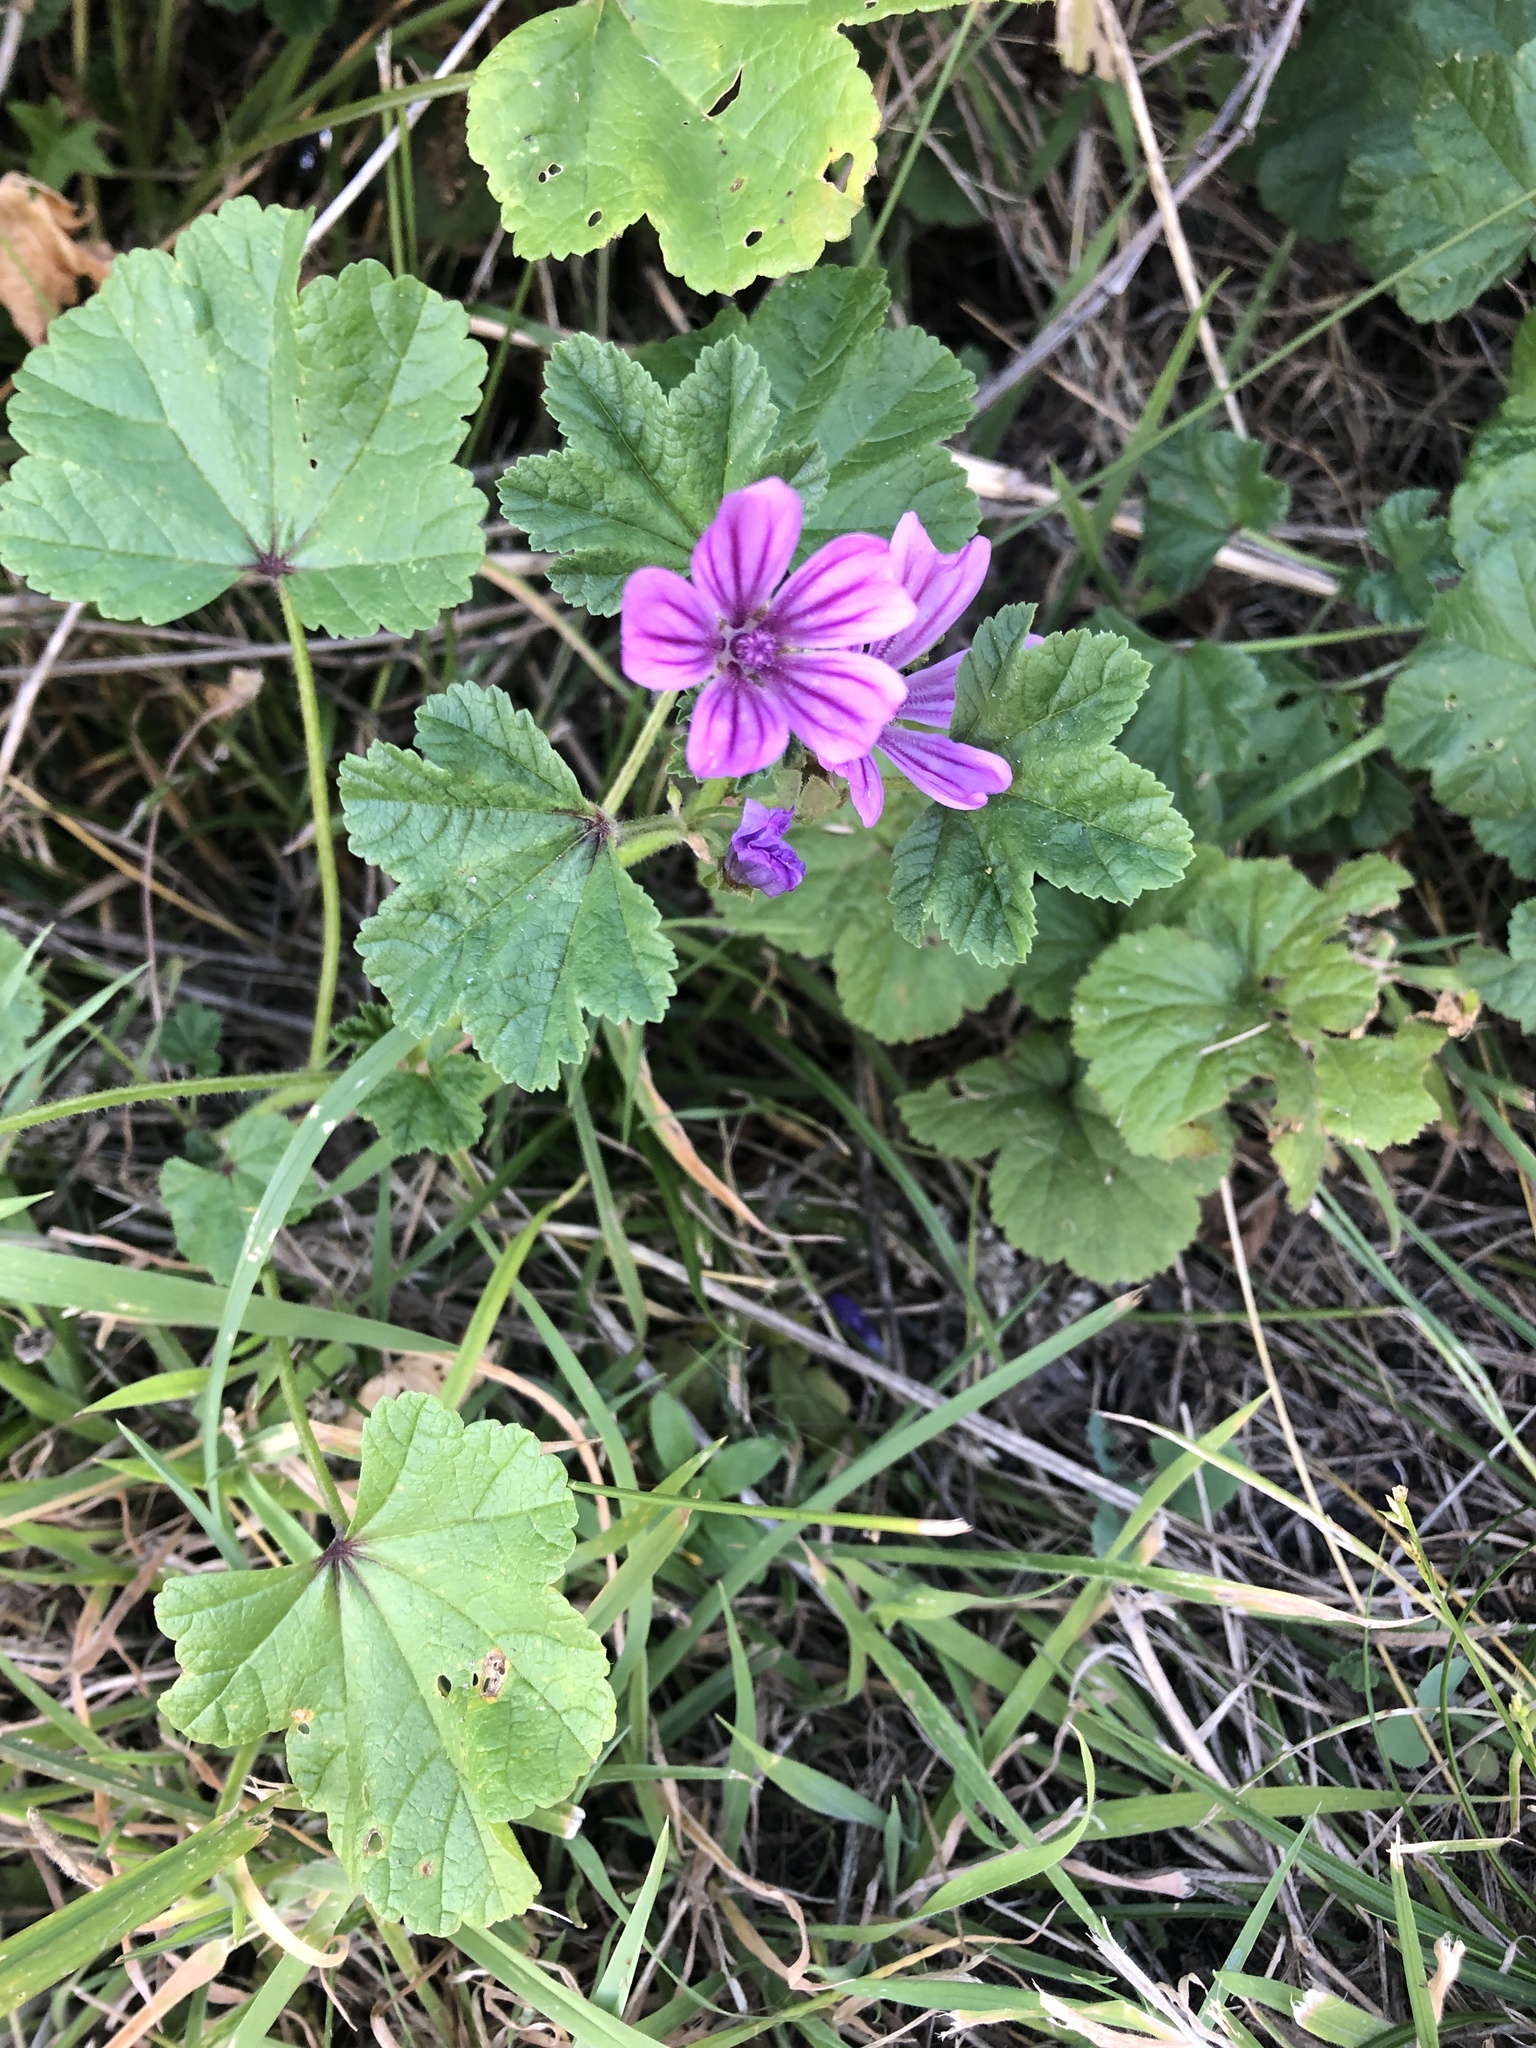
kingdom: Plantae
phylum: Tracheophyta
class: Magnoliopsida
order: Malvales
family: Malvaceae
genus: Malva
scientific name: Malva sylvestris
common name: Common mallow
